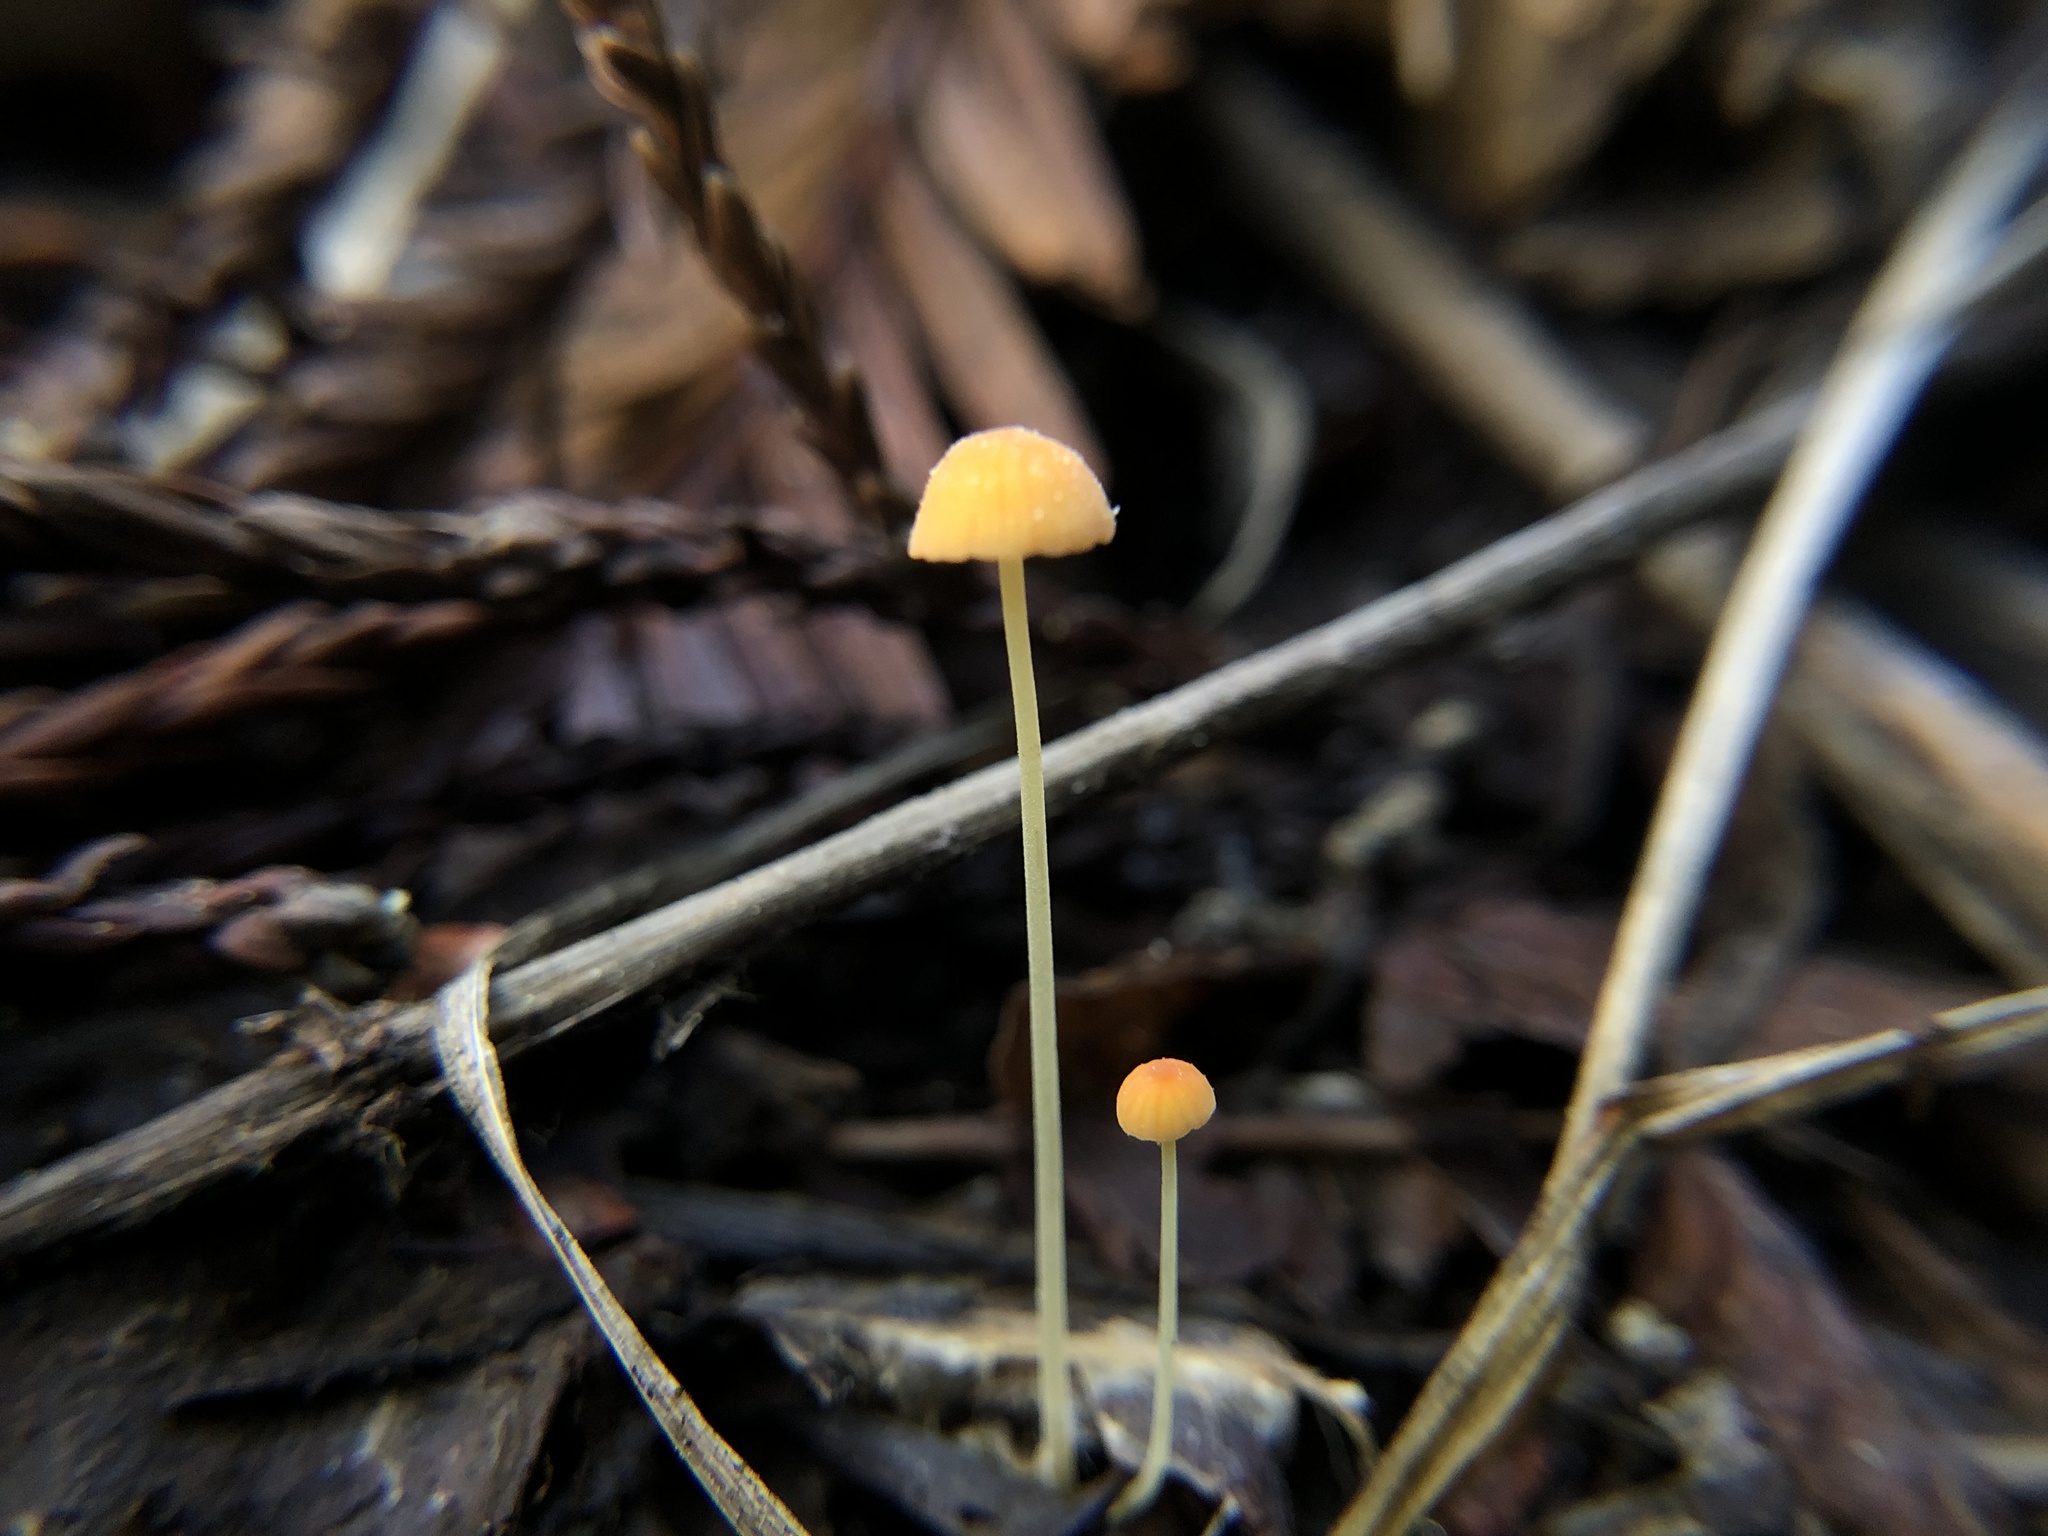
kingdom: Fungi
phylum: Basidiomycota
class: Agaricomycetes
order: Agaricales
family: Mycenaceae
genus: Mycena
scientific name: Mycena acicula
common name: Orange bonnet
